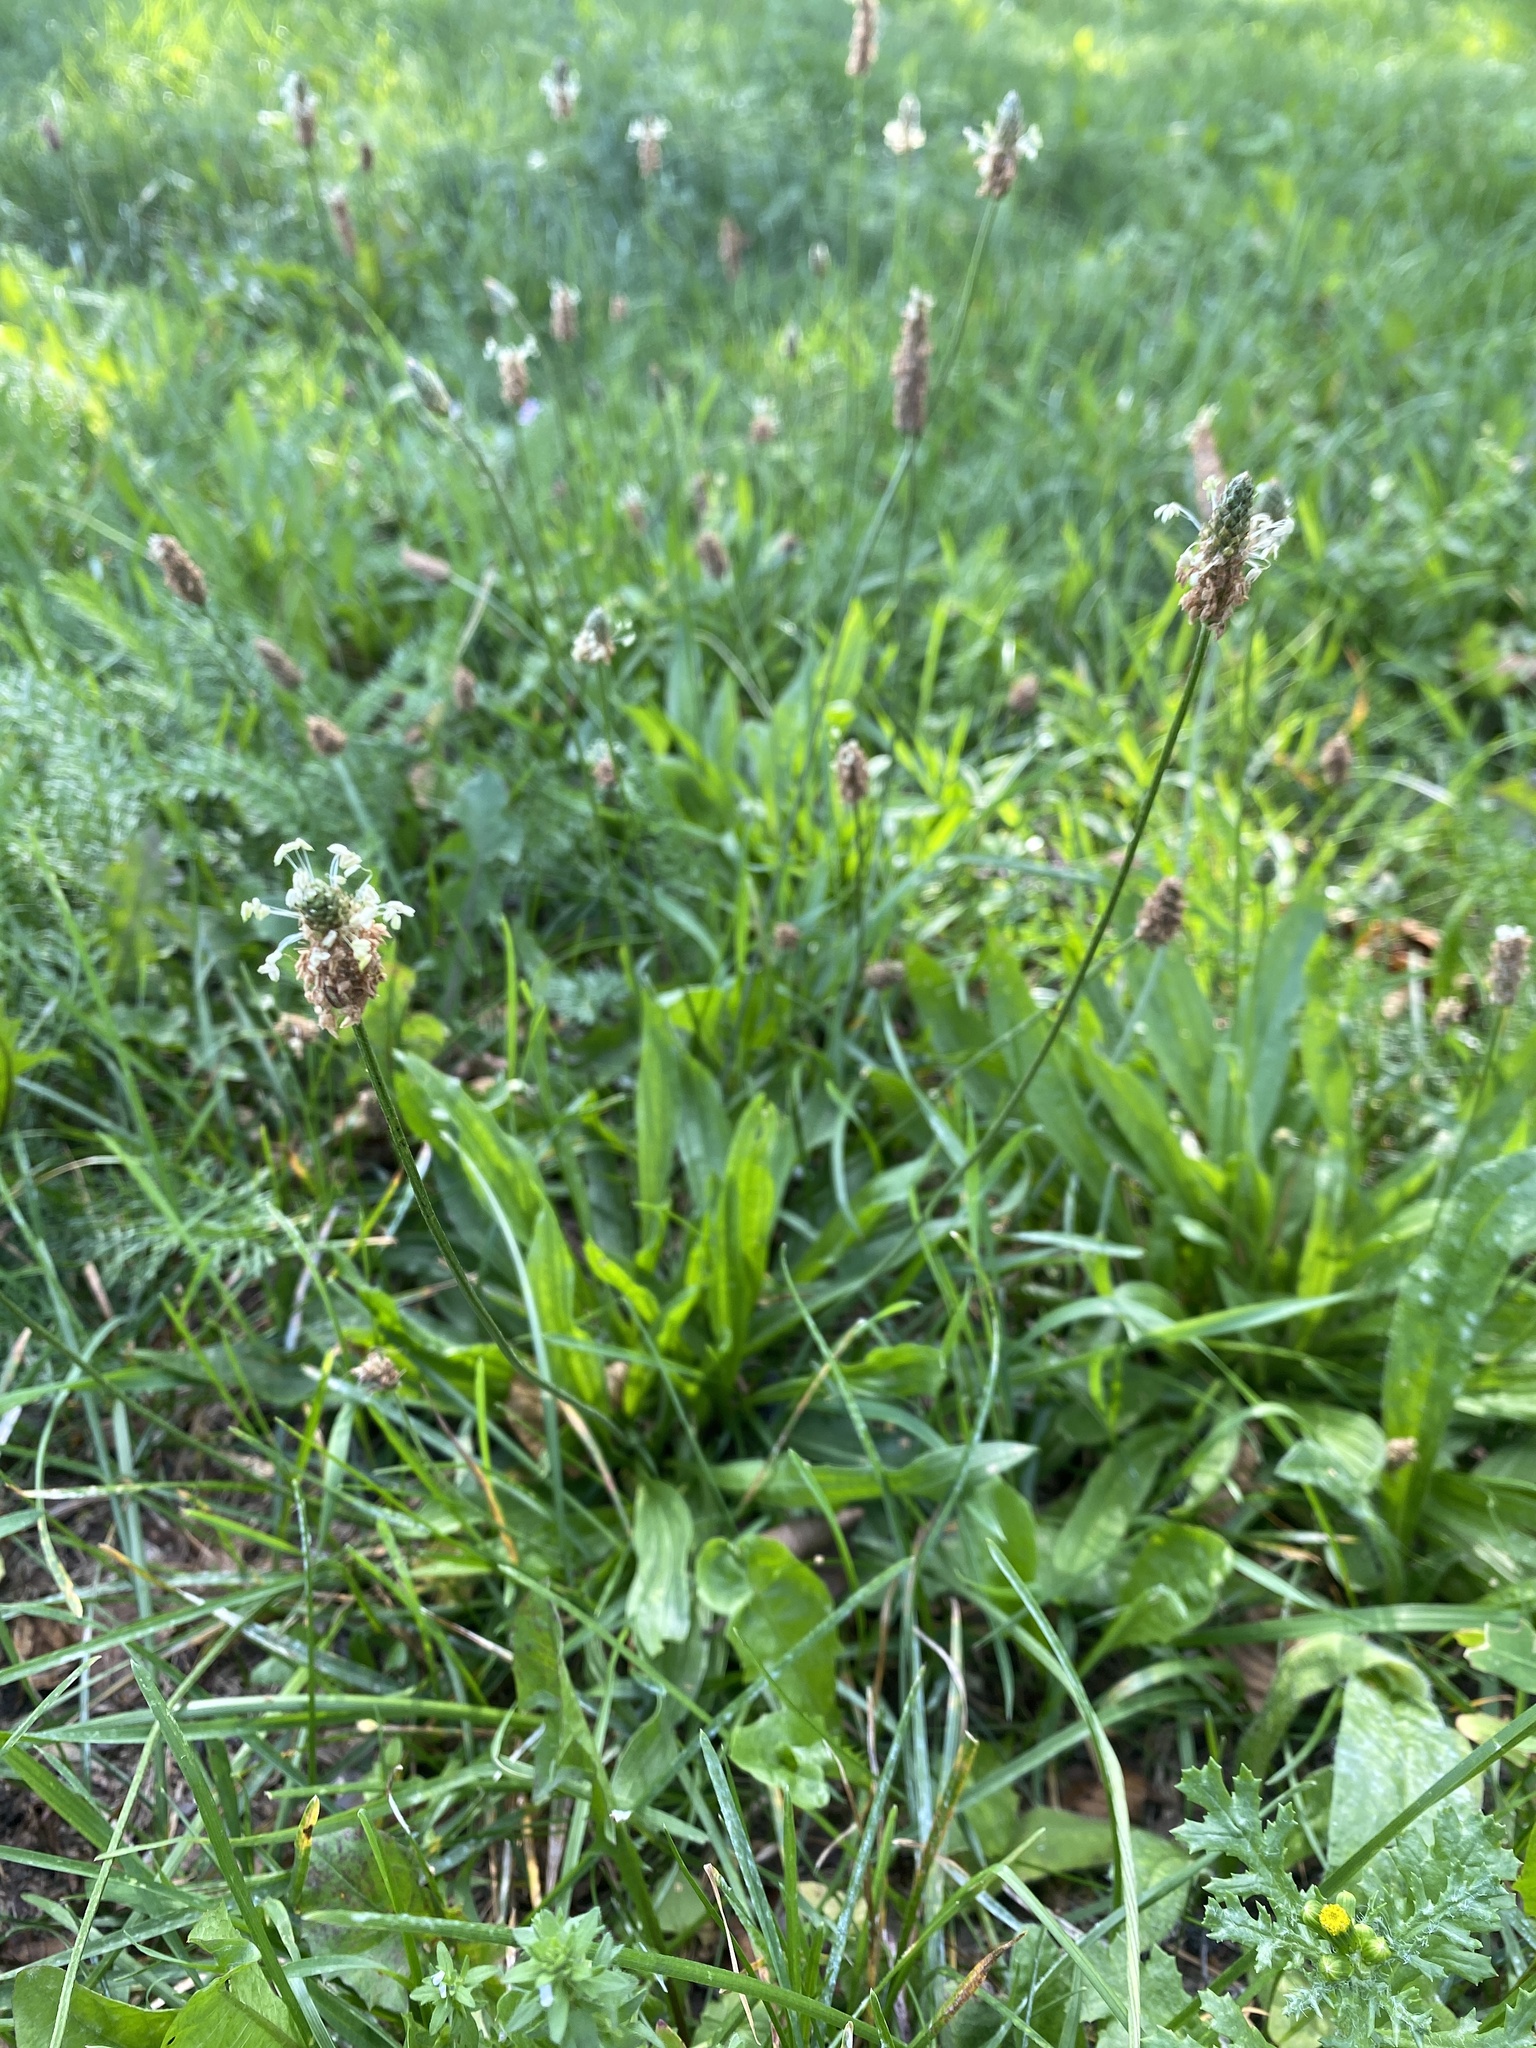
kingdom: Plantae
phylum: Tracheophyta
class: Magnoliopsida
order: Lamiales
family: Plantaginaceae
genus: Plantago
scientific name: Plantago lanceolata
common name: Ribwort plantain
